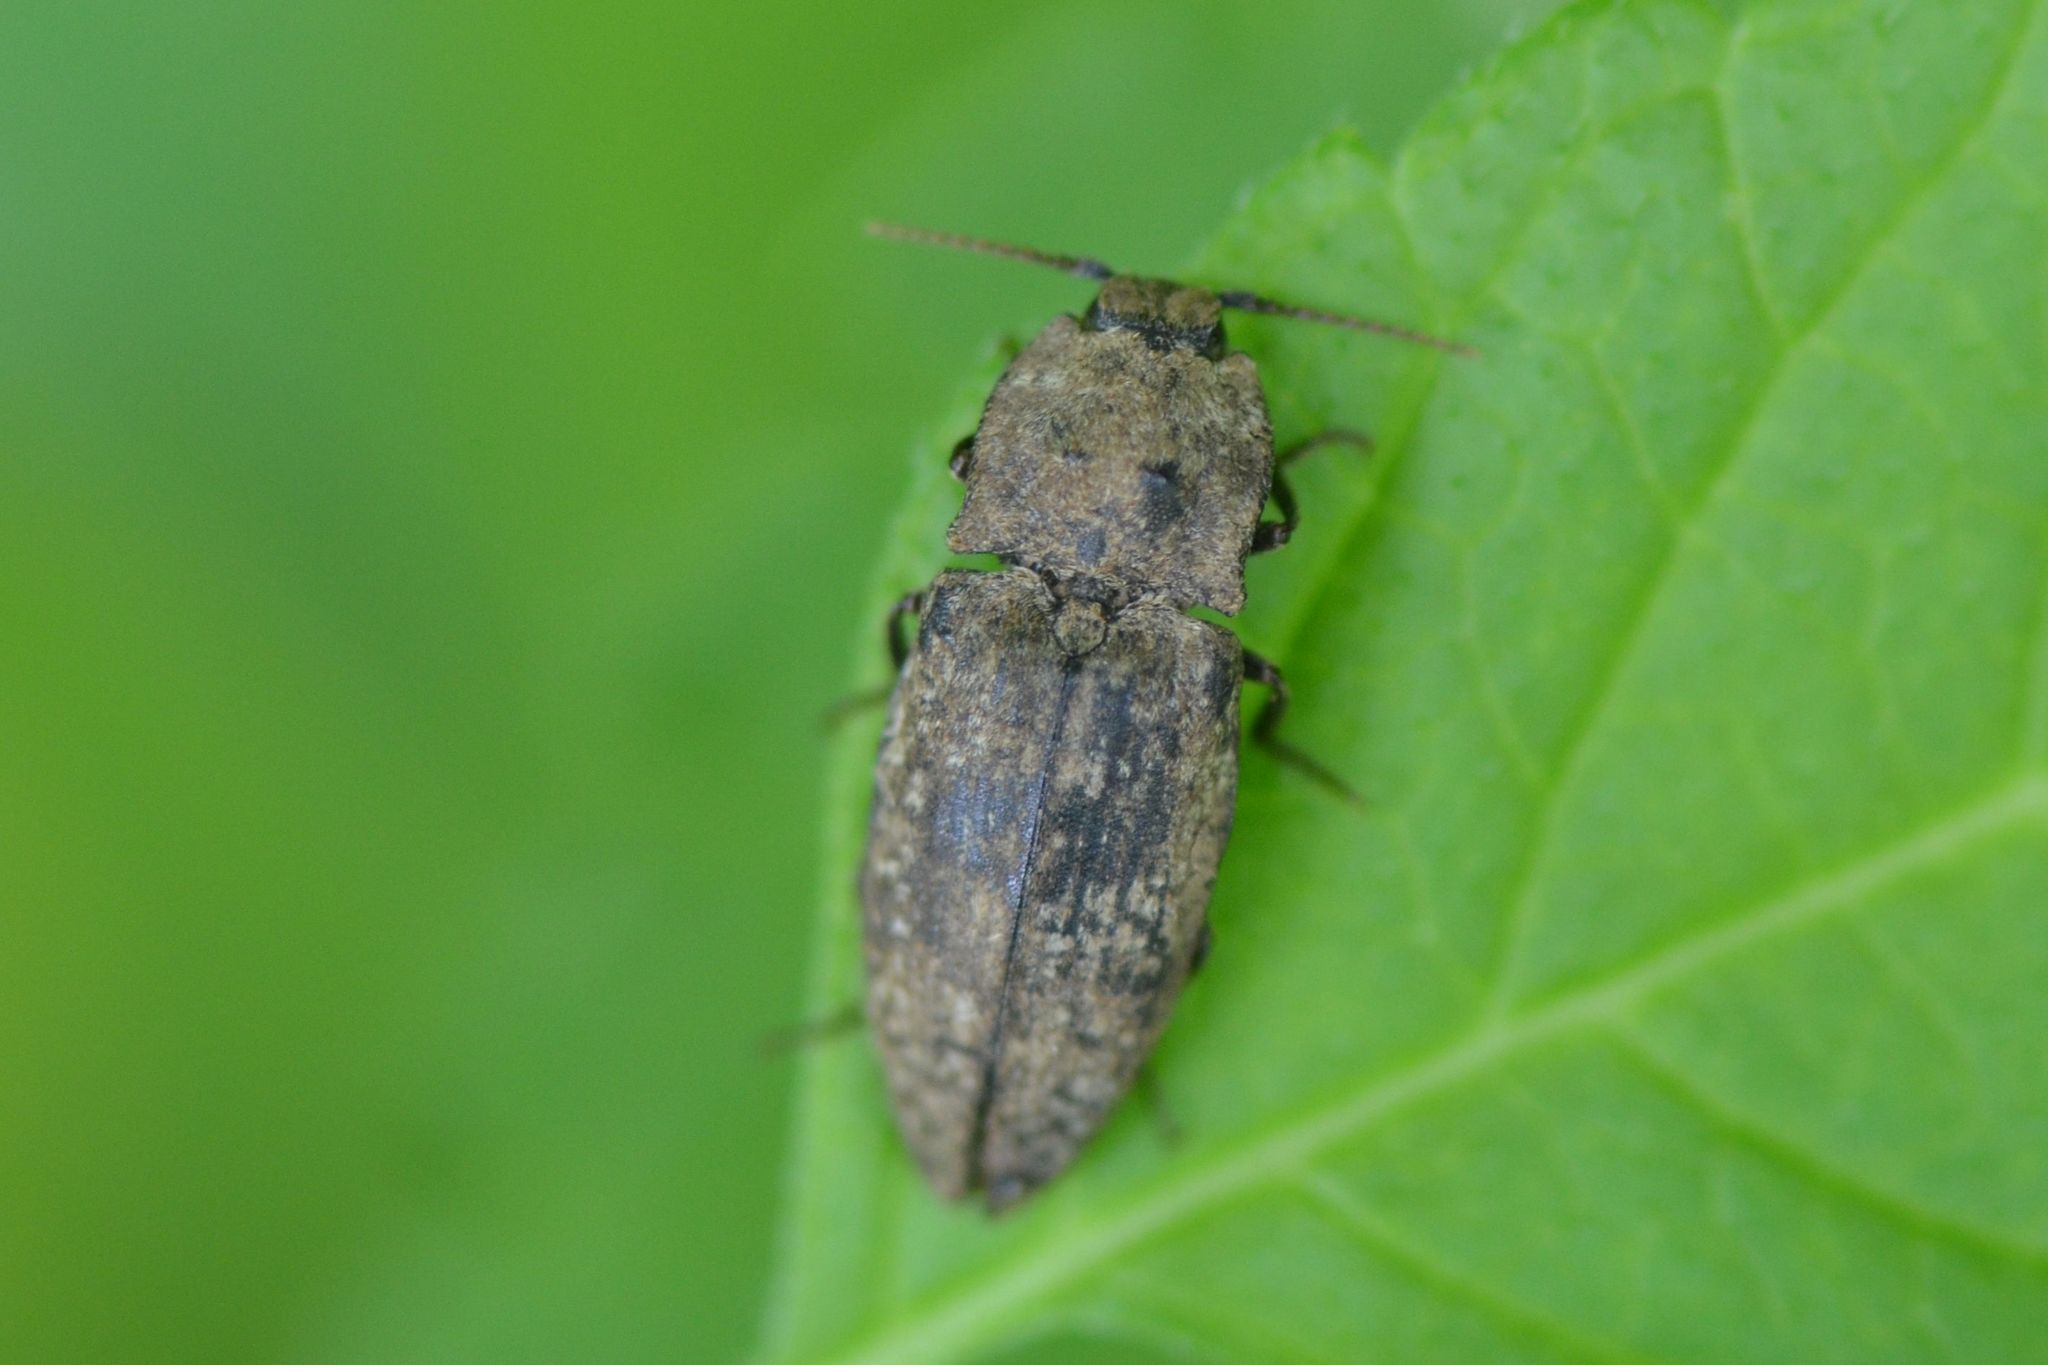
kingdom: Animalia
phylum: Arthropoda
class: Insecta
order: Coleoptera
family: Elateridae
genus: Agrypnus
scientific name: Agrypnus murinus
